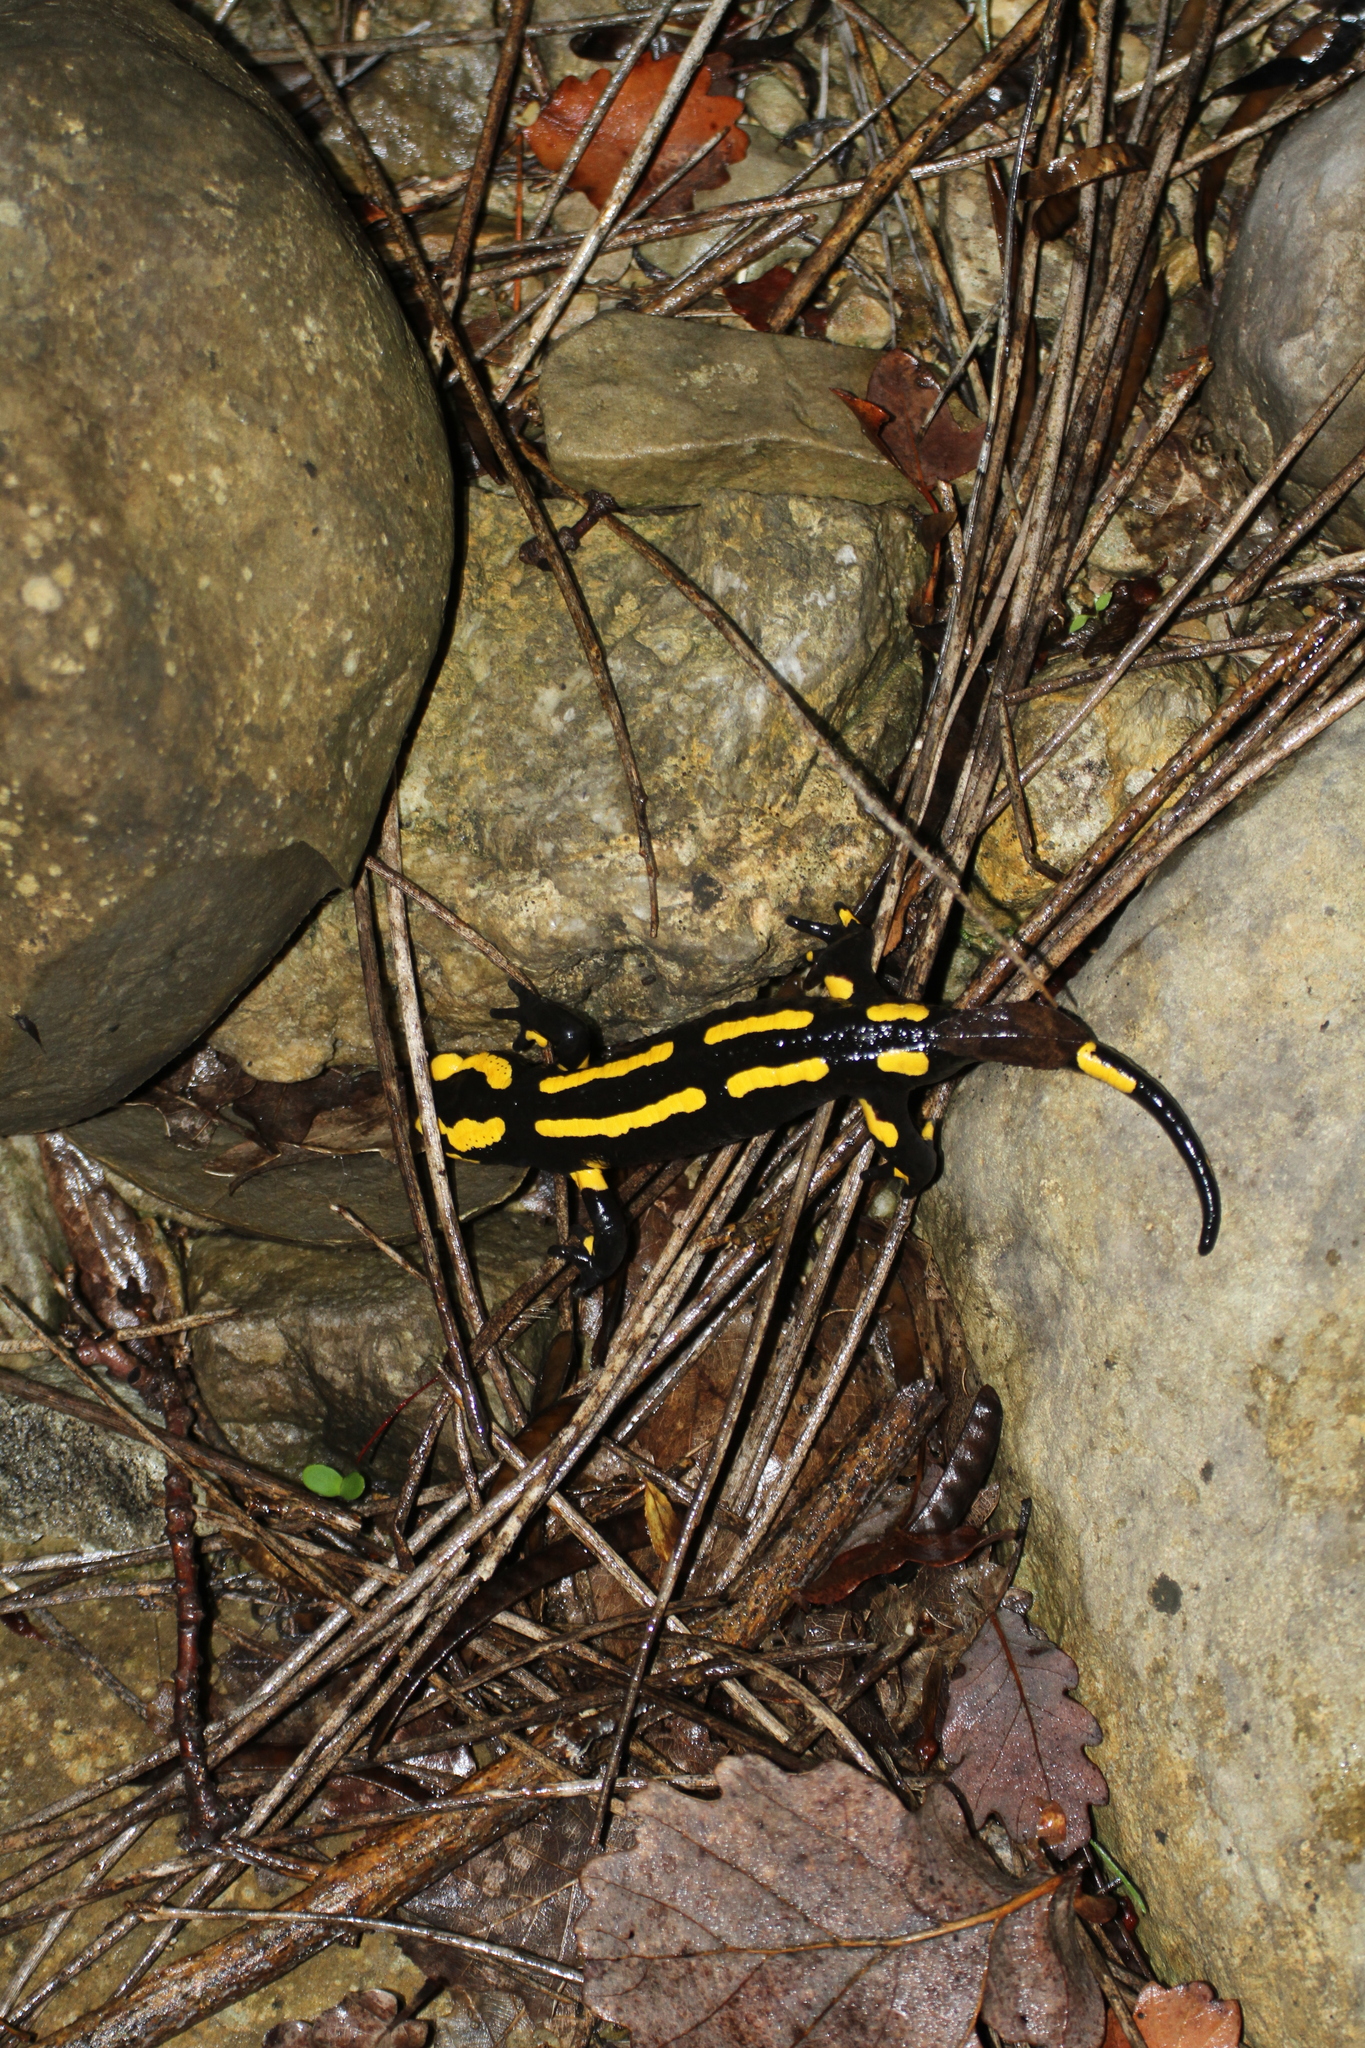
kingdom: Animalia
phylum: Chordata
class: Amphibia
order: Caudata
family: Salamandridae
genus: Salamandra
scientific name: Salamandra salamandra
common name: Fire salamander
